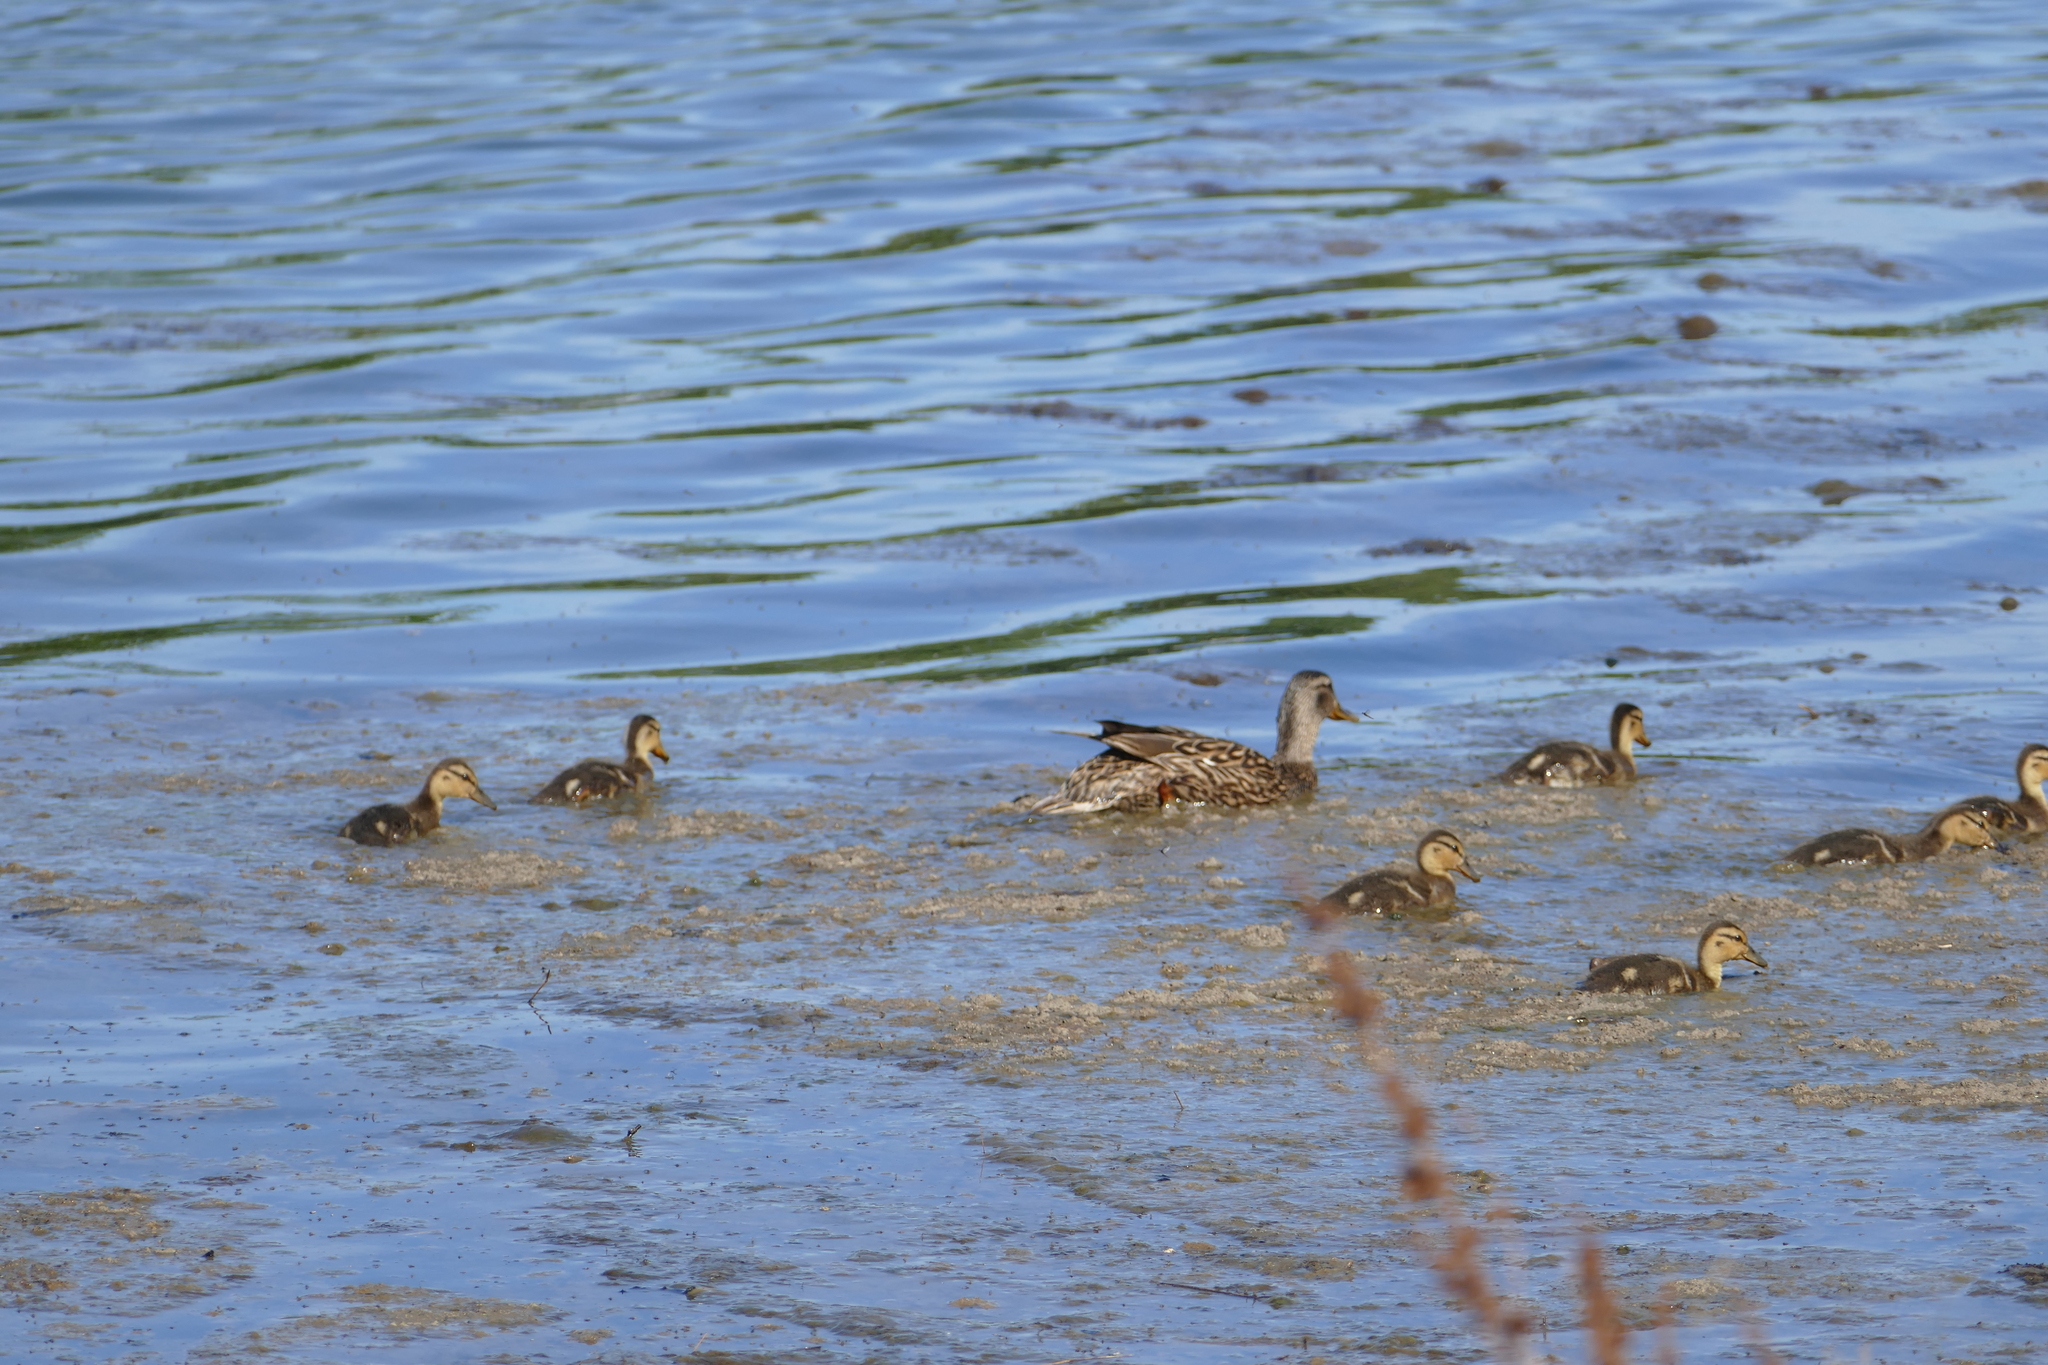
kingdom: Animalia
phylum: Chordata
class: Aves
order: Anseriformes
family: Anatidae
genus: Anas
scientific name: Anas platyrhynchos
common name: Mallard
